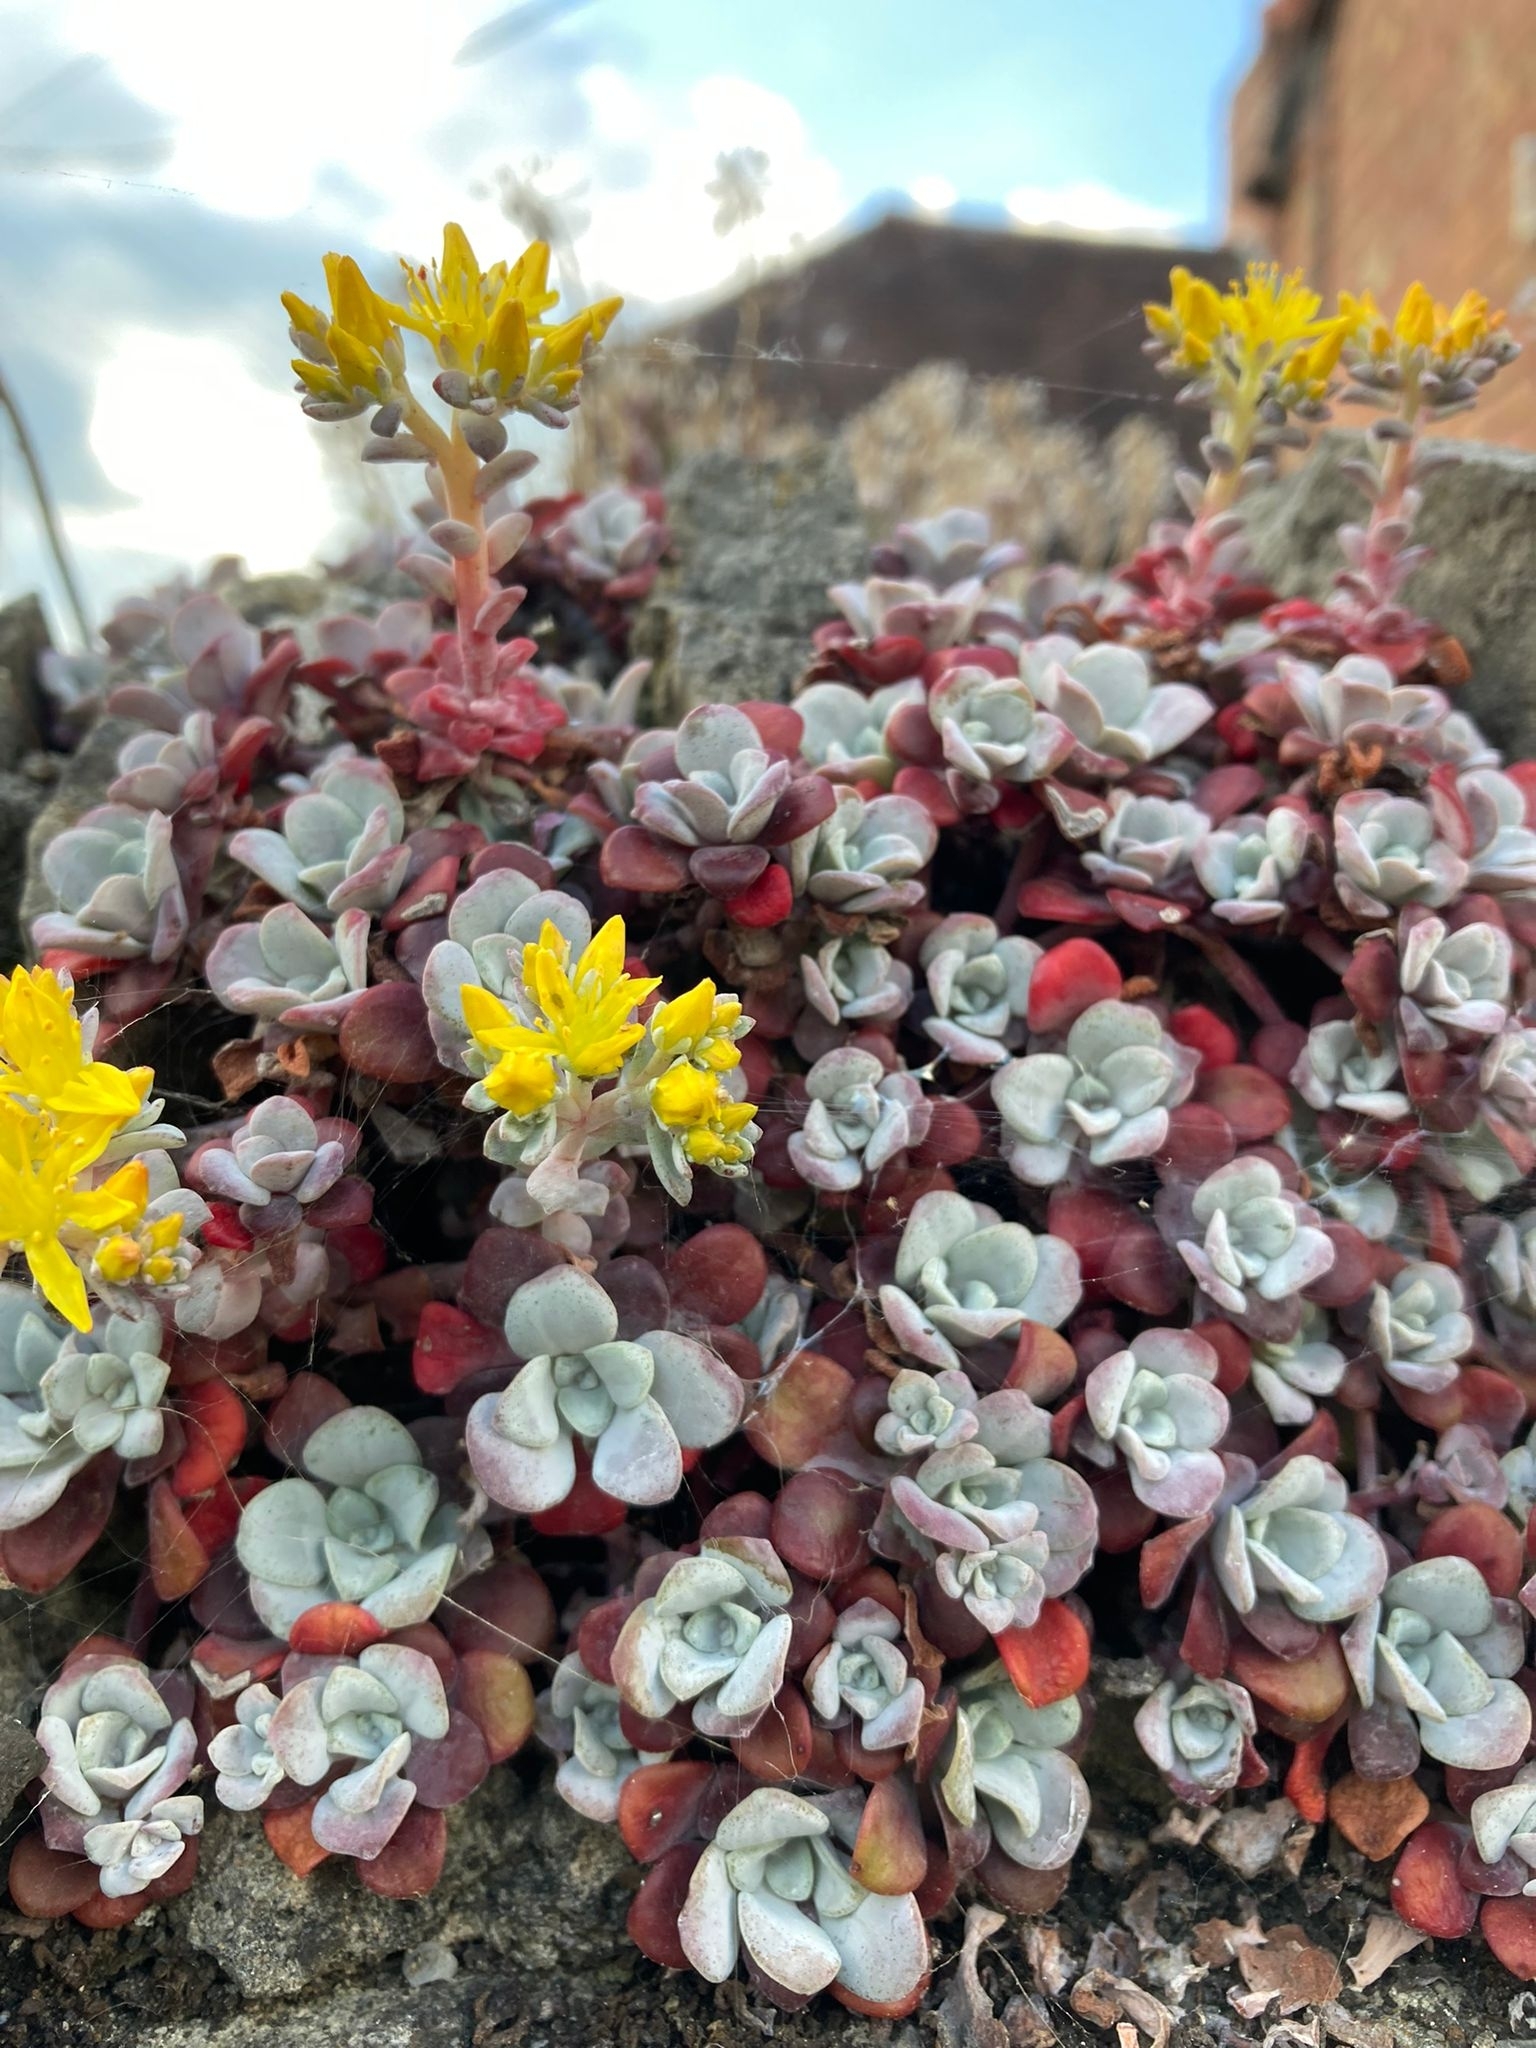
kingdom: Plantae
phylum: Tracheophyta
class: Magnoliopsida
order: Saxifragales
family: Crassulaceae
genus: Sedum
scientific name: Sedum spathulifolium
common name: Colorado stonecrop
